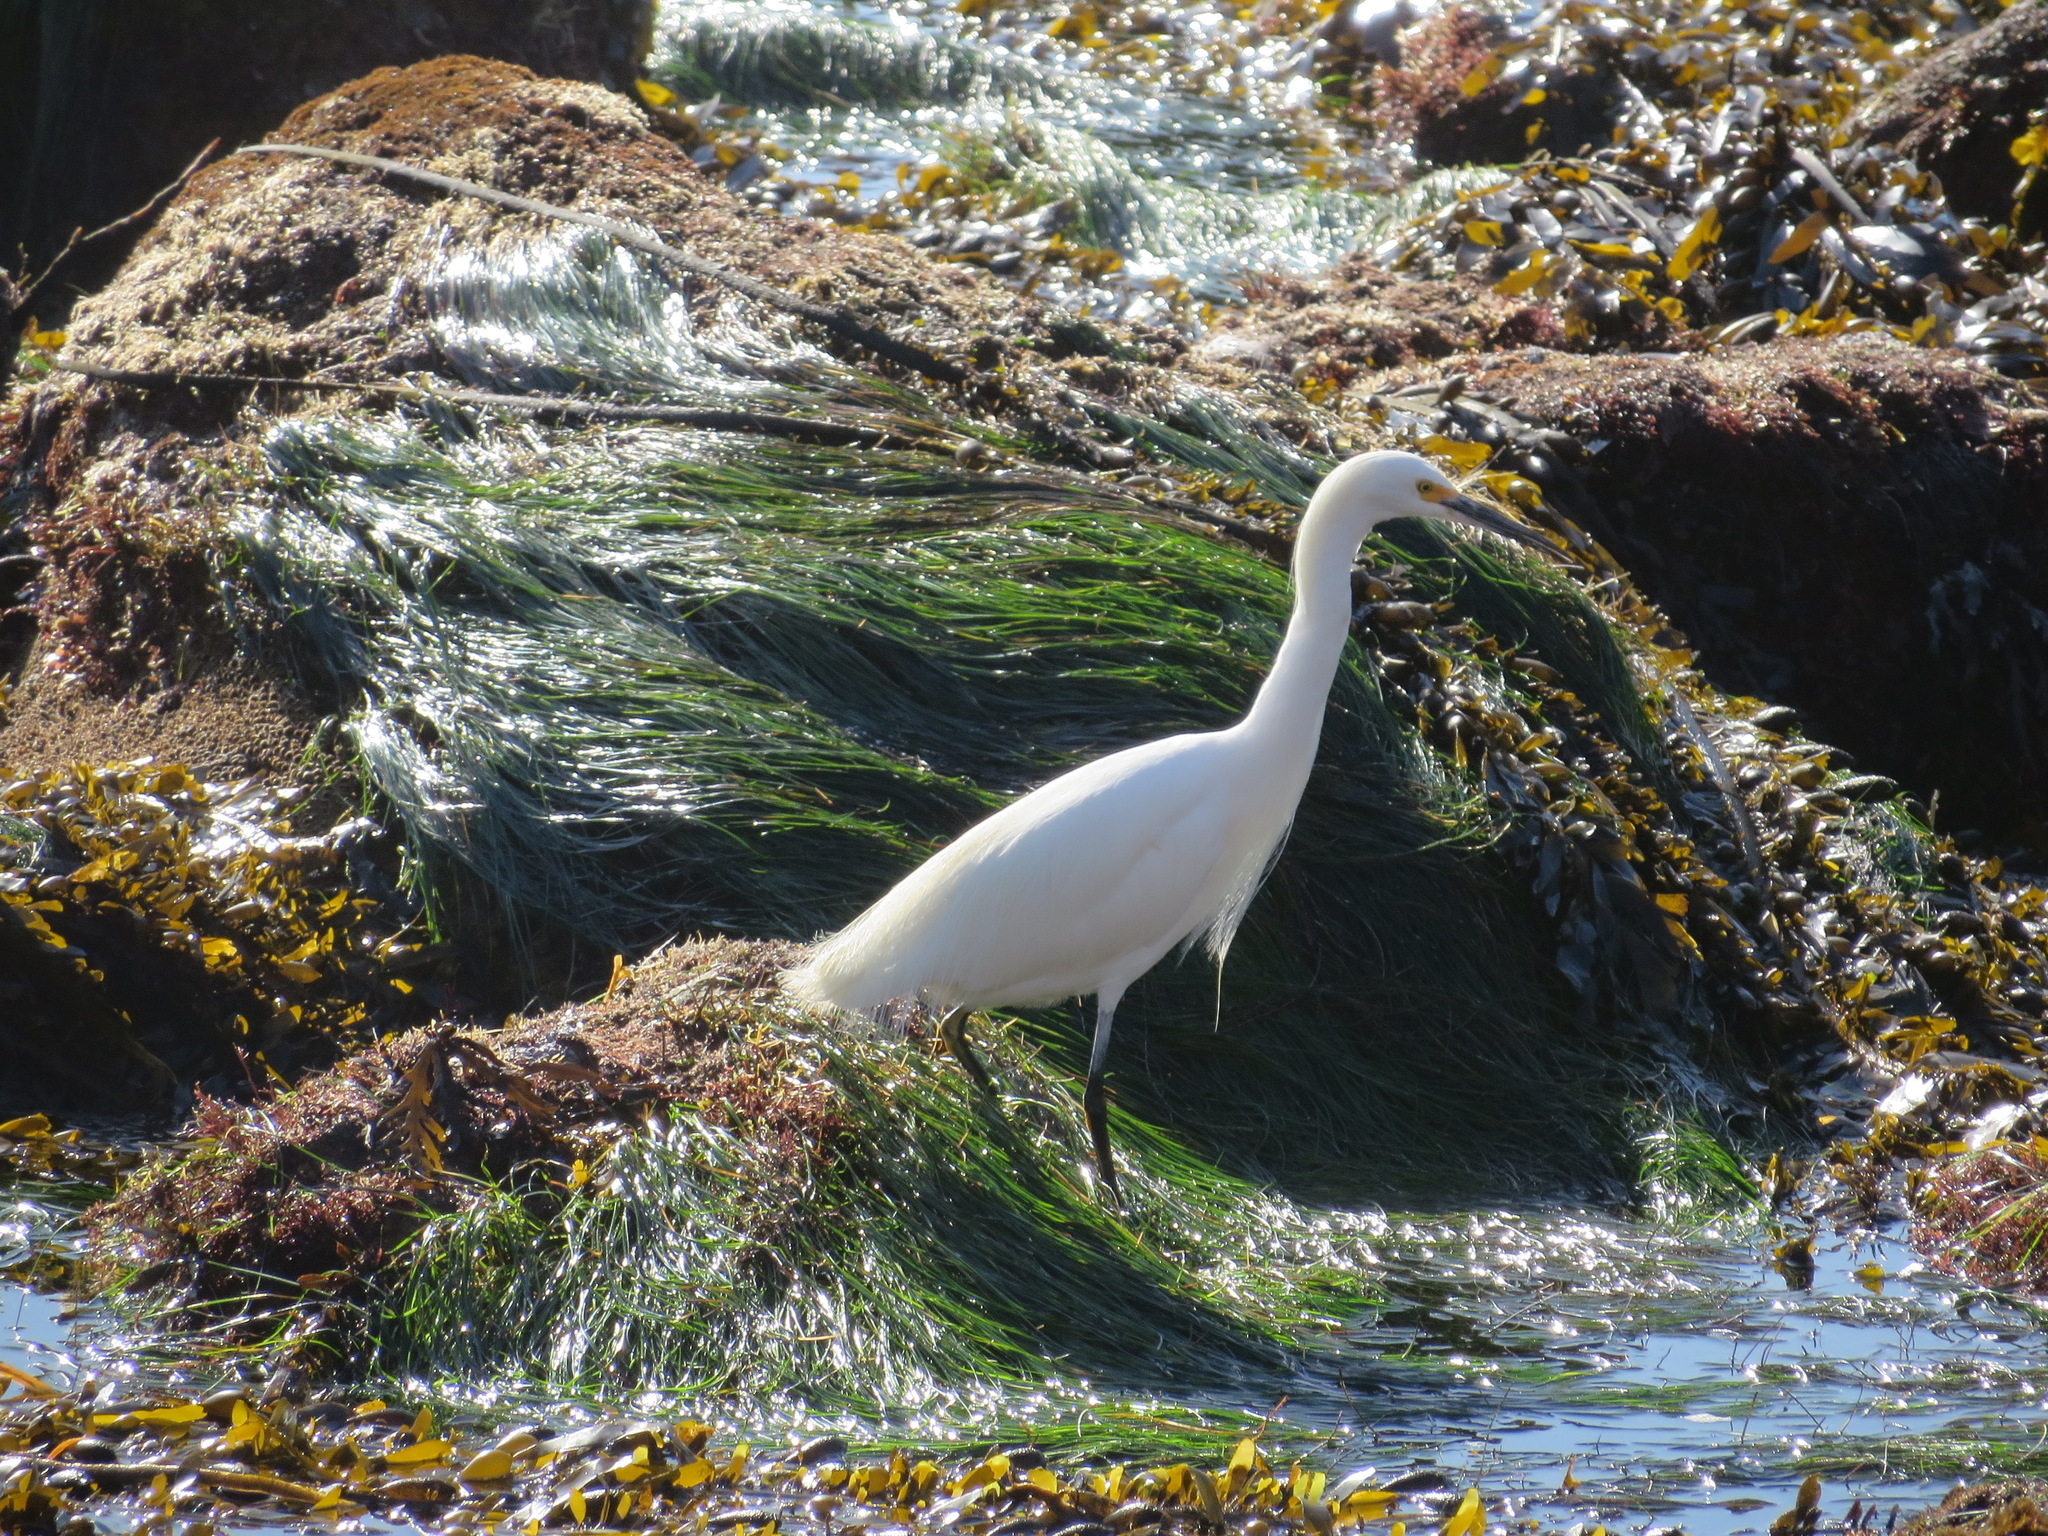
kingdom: Animalia
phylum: Chordata
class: Aves
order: Pelecaniformes
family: Ardeidae
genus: Egretta
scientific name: Egretta thula
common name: Snowy egret
